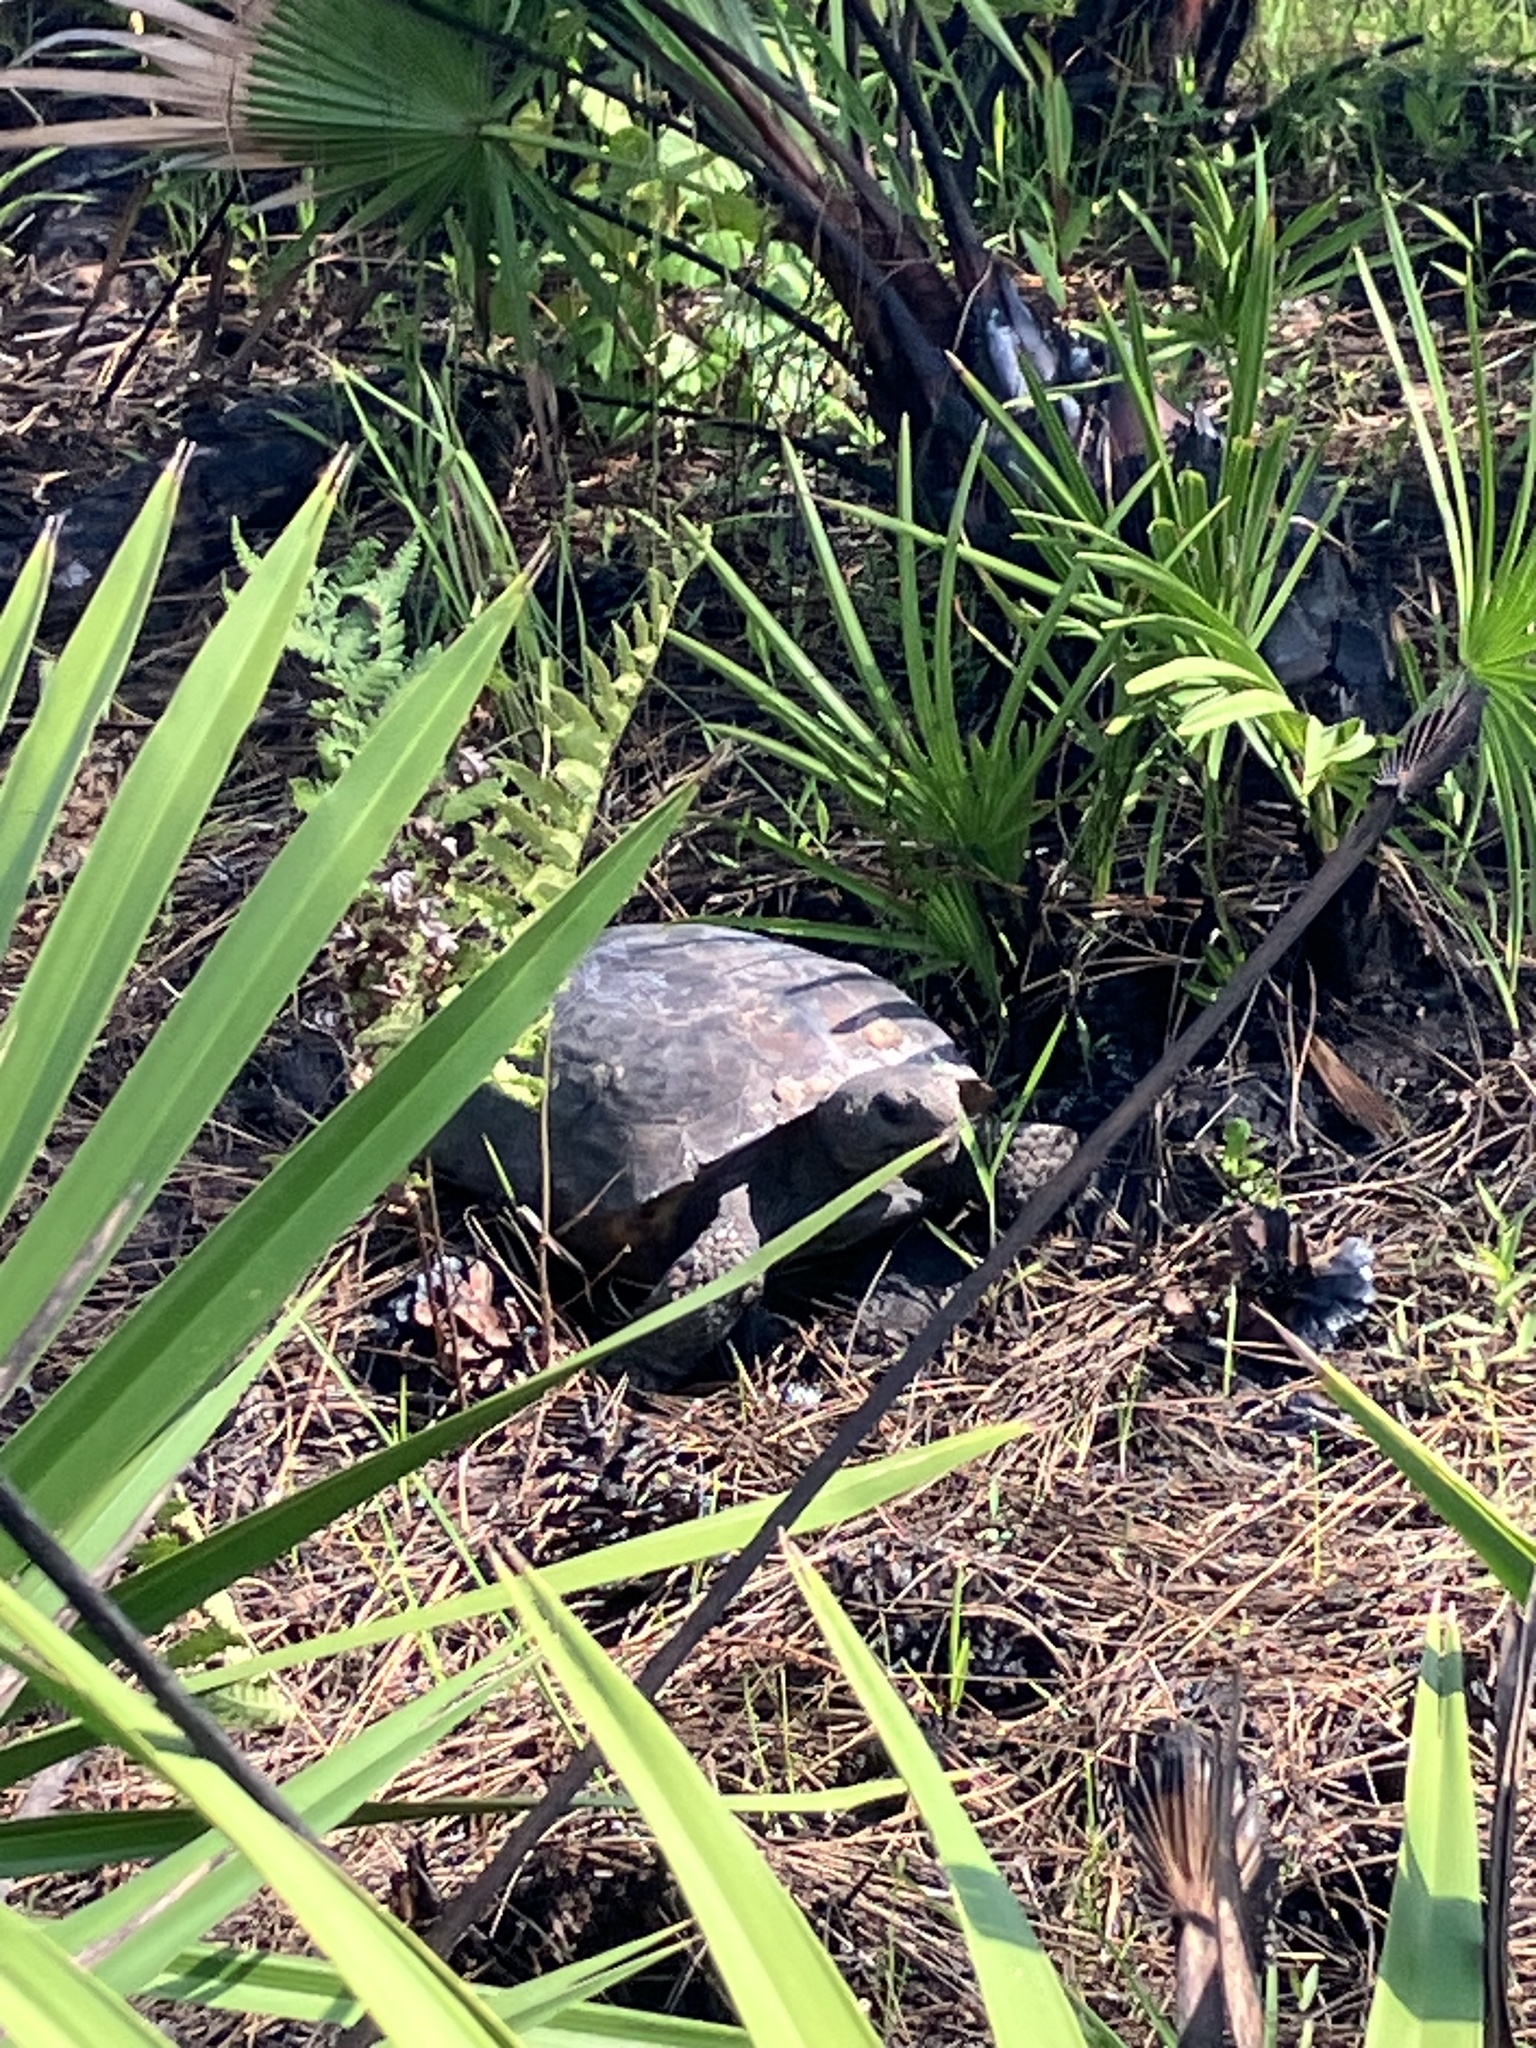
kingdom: Animalia
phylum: Chordata
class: Testudines
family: Testudinidae
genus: Gopherus
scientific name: Gopherus polyphemus
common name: Florida gopher tortoise
